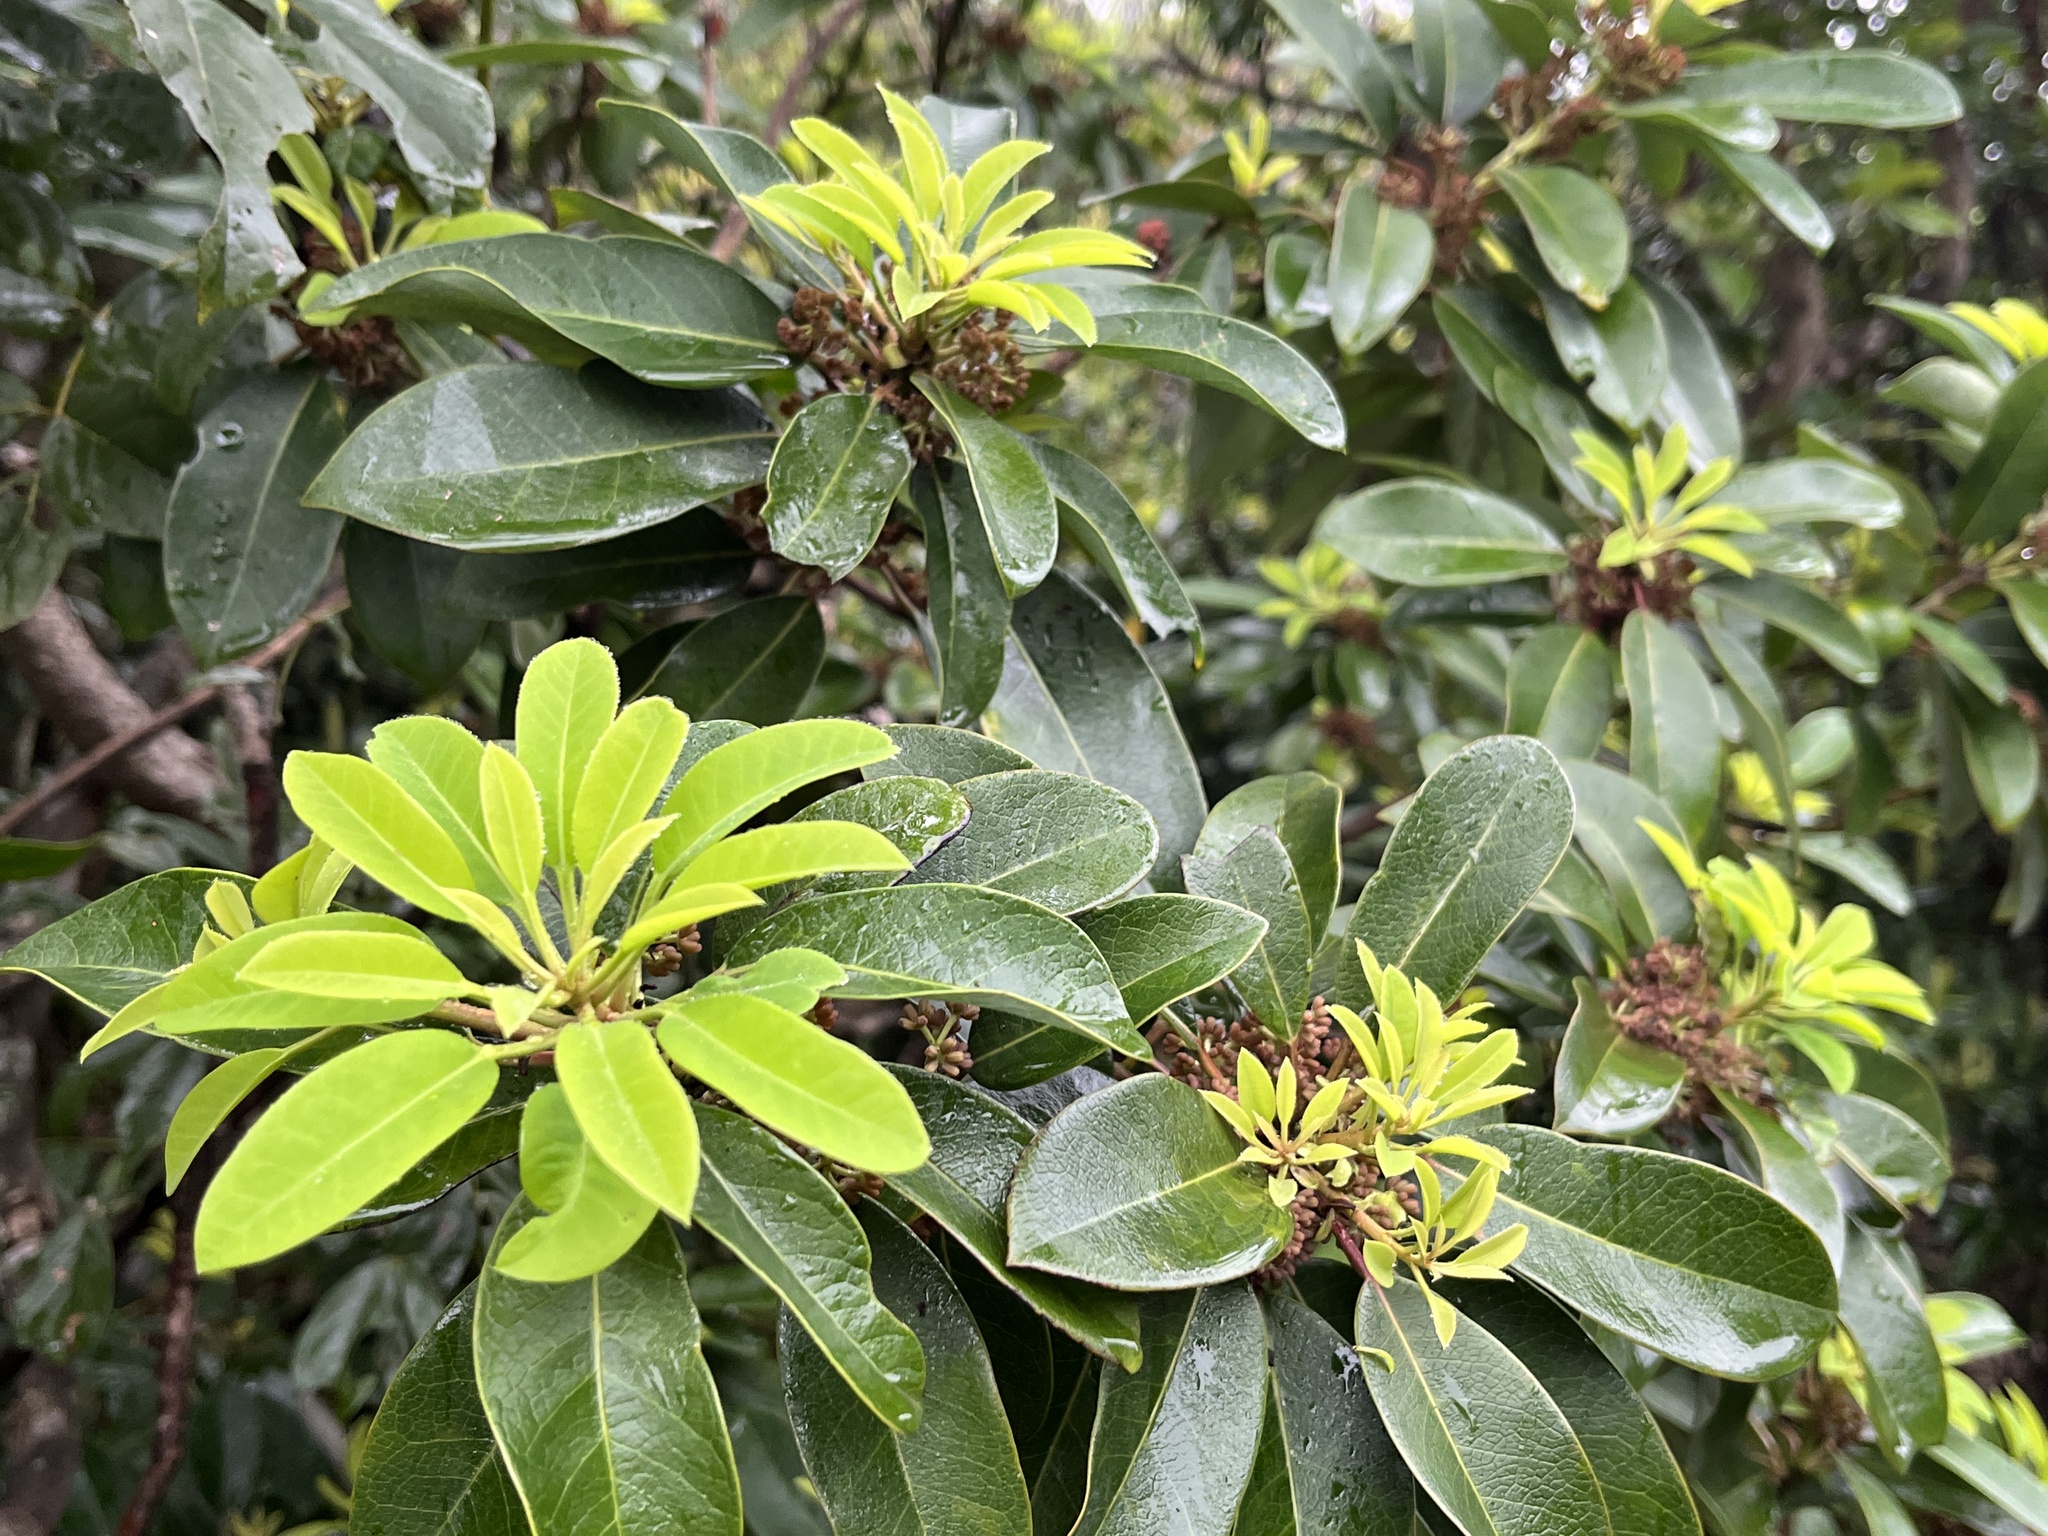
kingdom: Plantae
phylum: Tracheophyta
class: Magnoliopsida
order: Saxifragales
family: Daphniphyllaceae
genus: Daphniphyllum
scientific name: Daphniphyllum pentandrum
